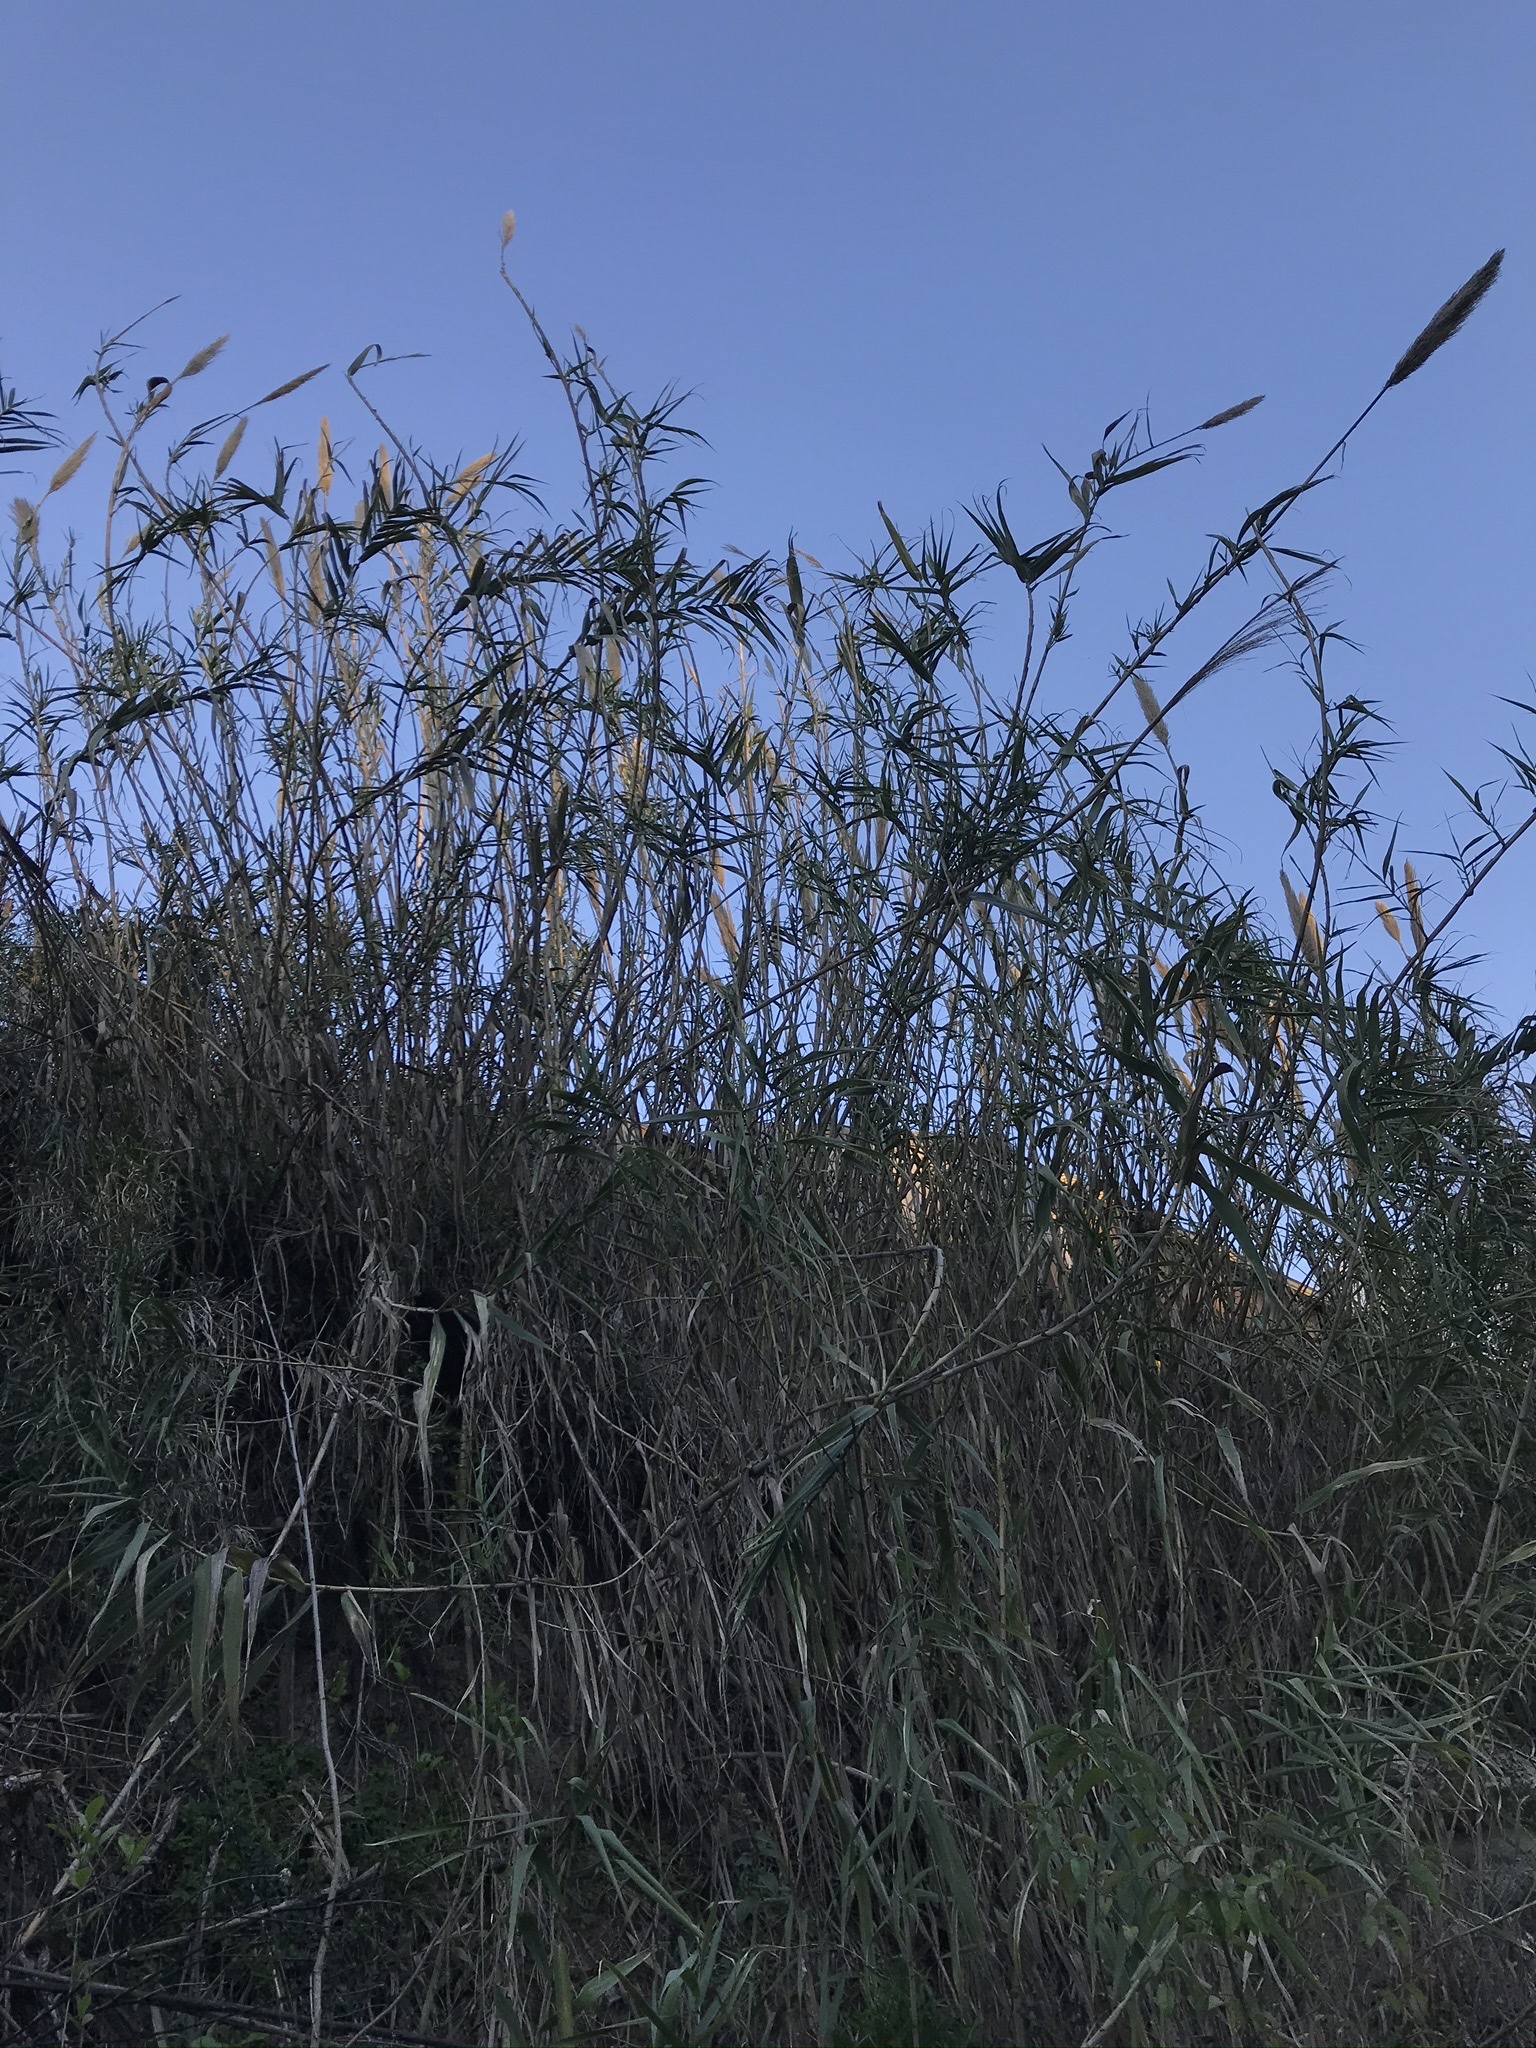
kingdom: Plantae
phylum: Tracheophyta
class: Liliopsida
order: Poales
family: Poaceae
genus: Arundo
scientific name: Arundo donax
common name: Giant reed
